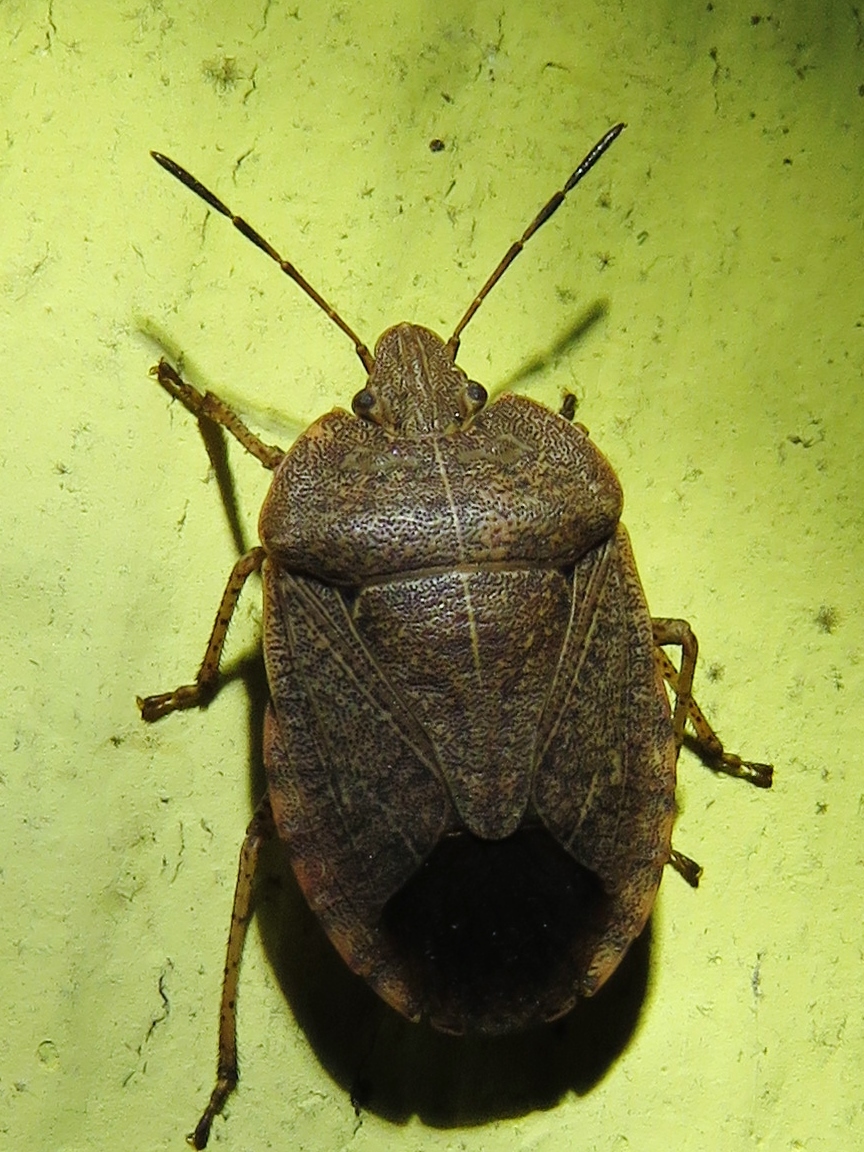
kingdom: Animalia
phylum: Arthropoda
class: Insecta
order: Hemiptera
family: Pentatomidae
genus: Menecles
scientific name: Menecles insertus
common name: Elf shoe stink bug
